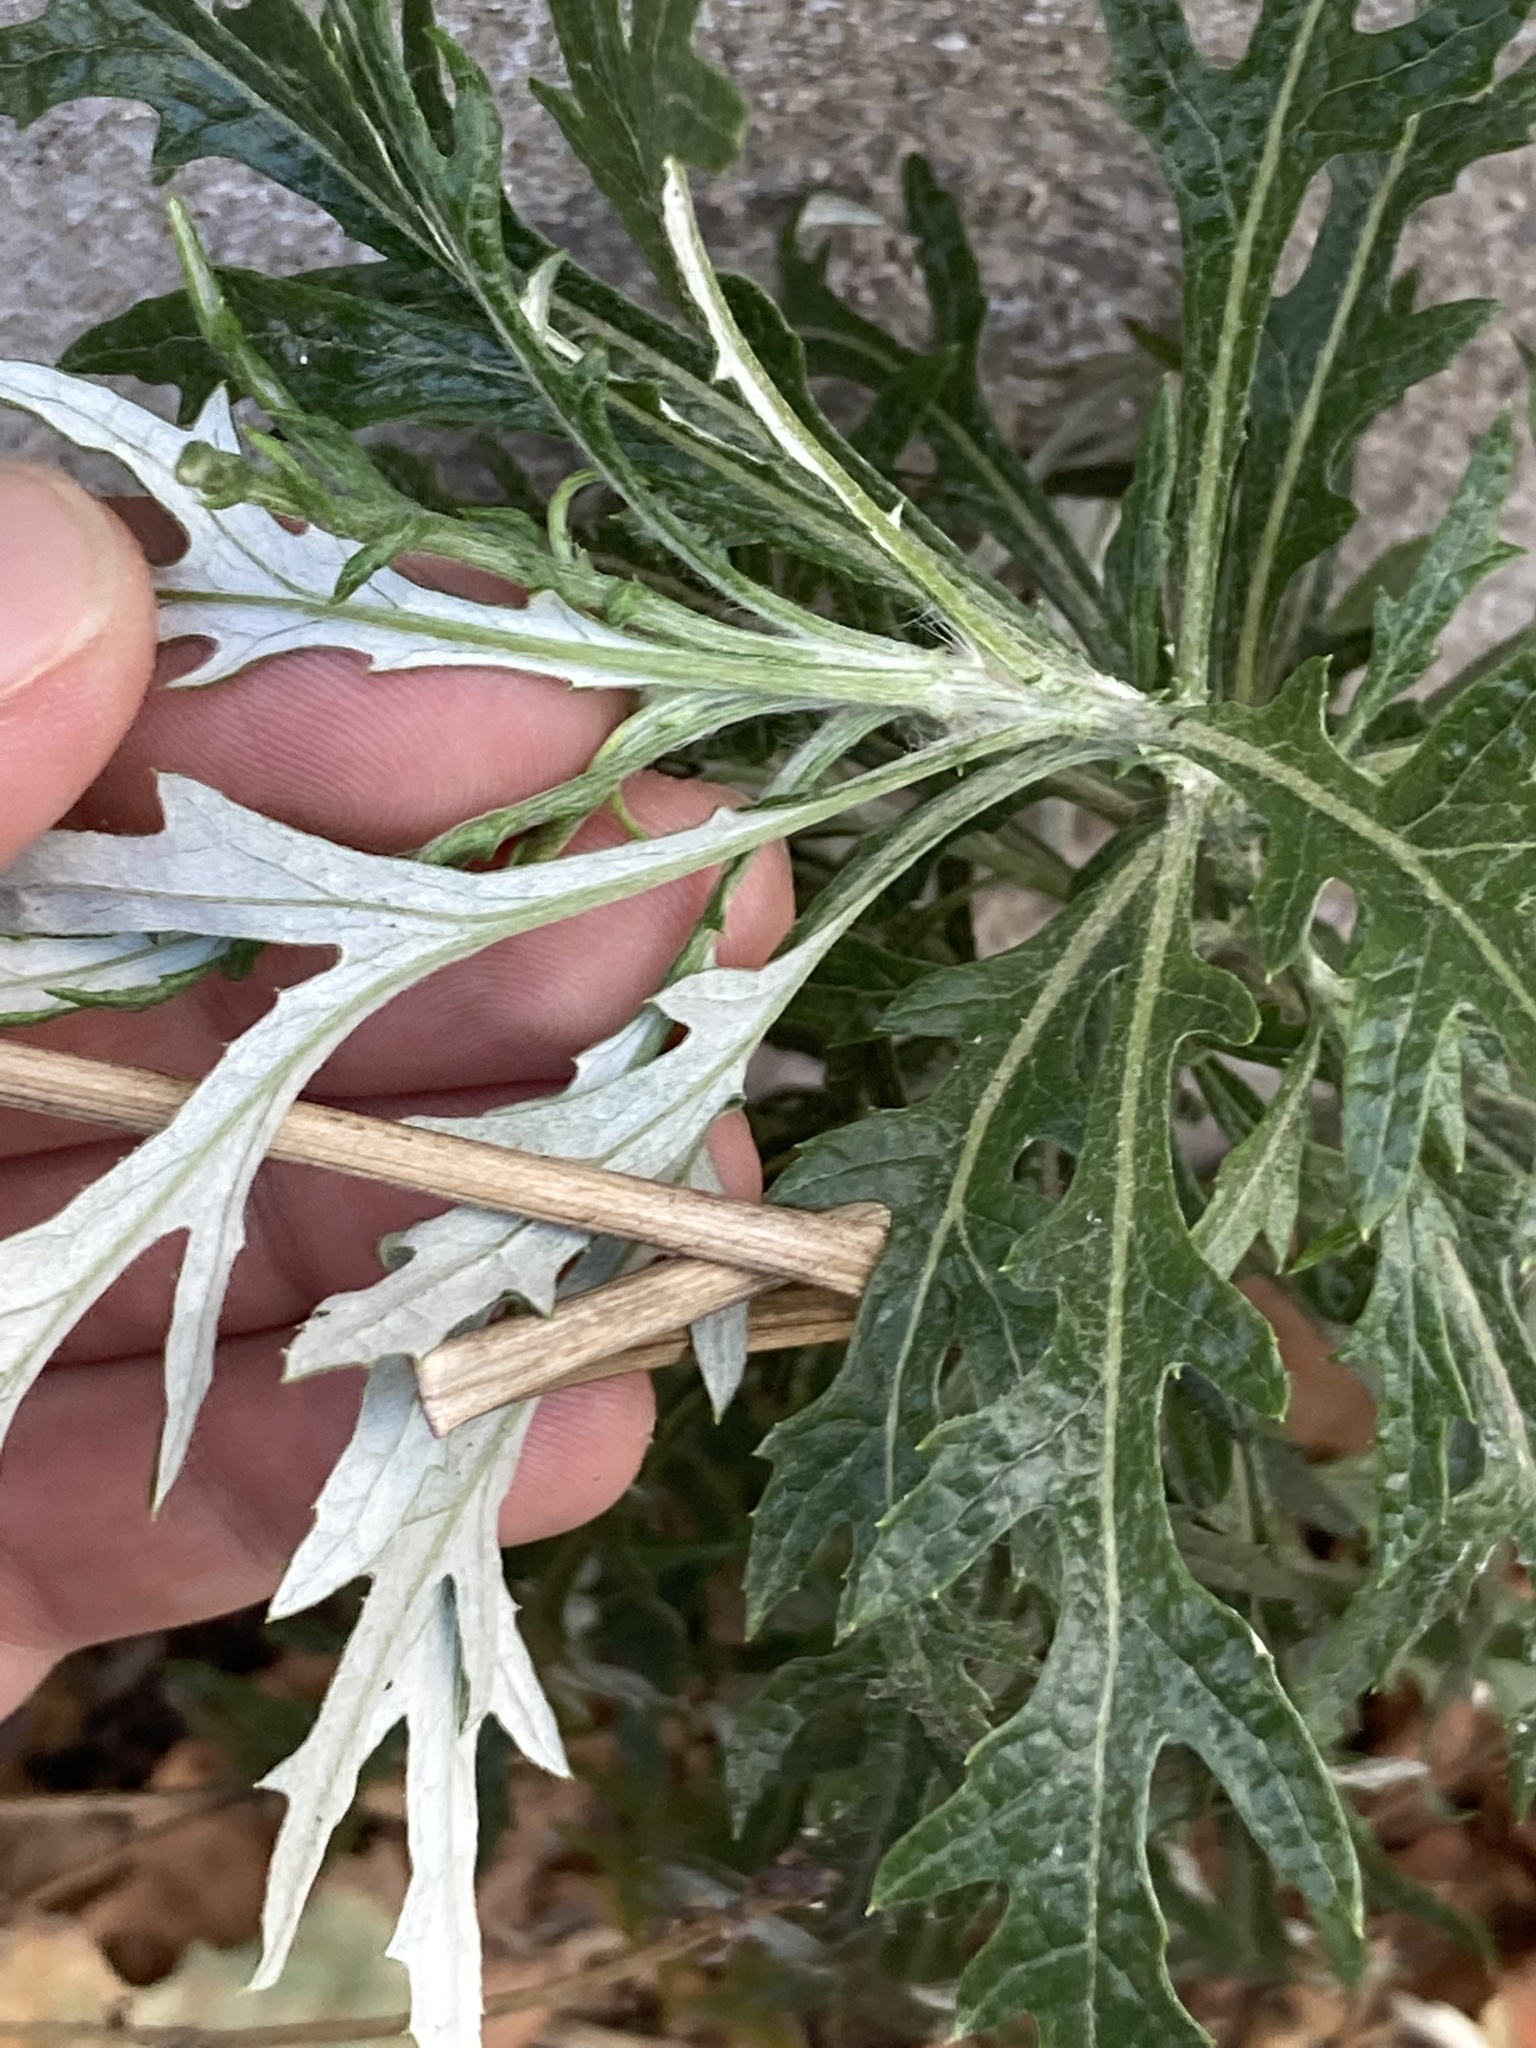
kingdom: Plantae
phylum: Tracheophyta
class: Magnoliopsida
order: Asterales
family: Asteraceae
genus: Senecio
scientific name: Senecio pterophorus
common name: Shoddy ragwort
